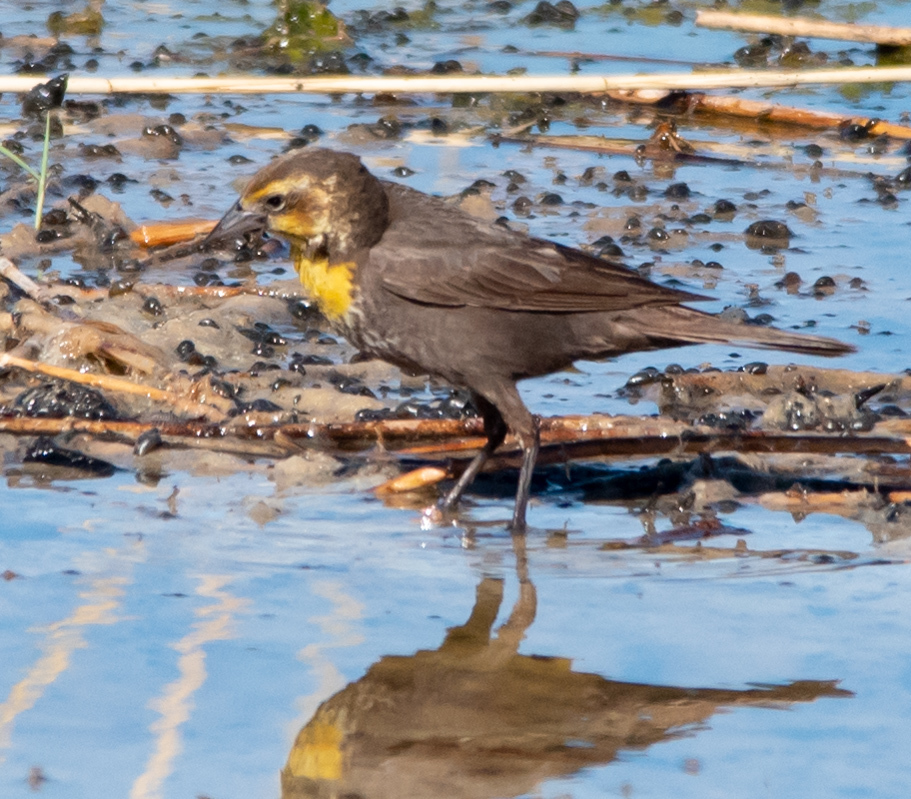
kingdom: Animalia
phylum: Chordata
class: Aves
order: Passeriformes
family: Icteridae
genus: Xanthocephalus
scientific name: Xanthocephalus xanthocephalus
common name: Yellow-headed blackbird
